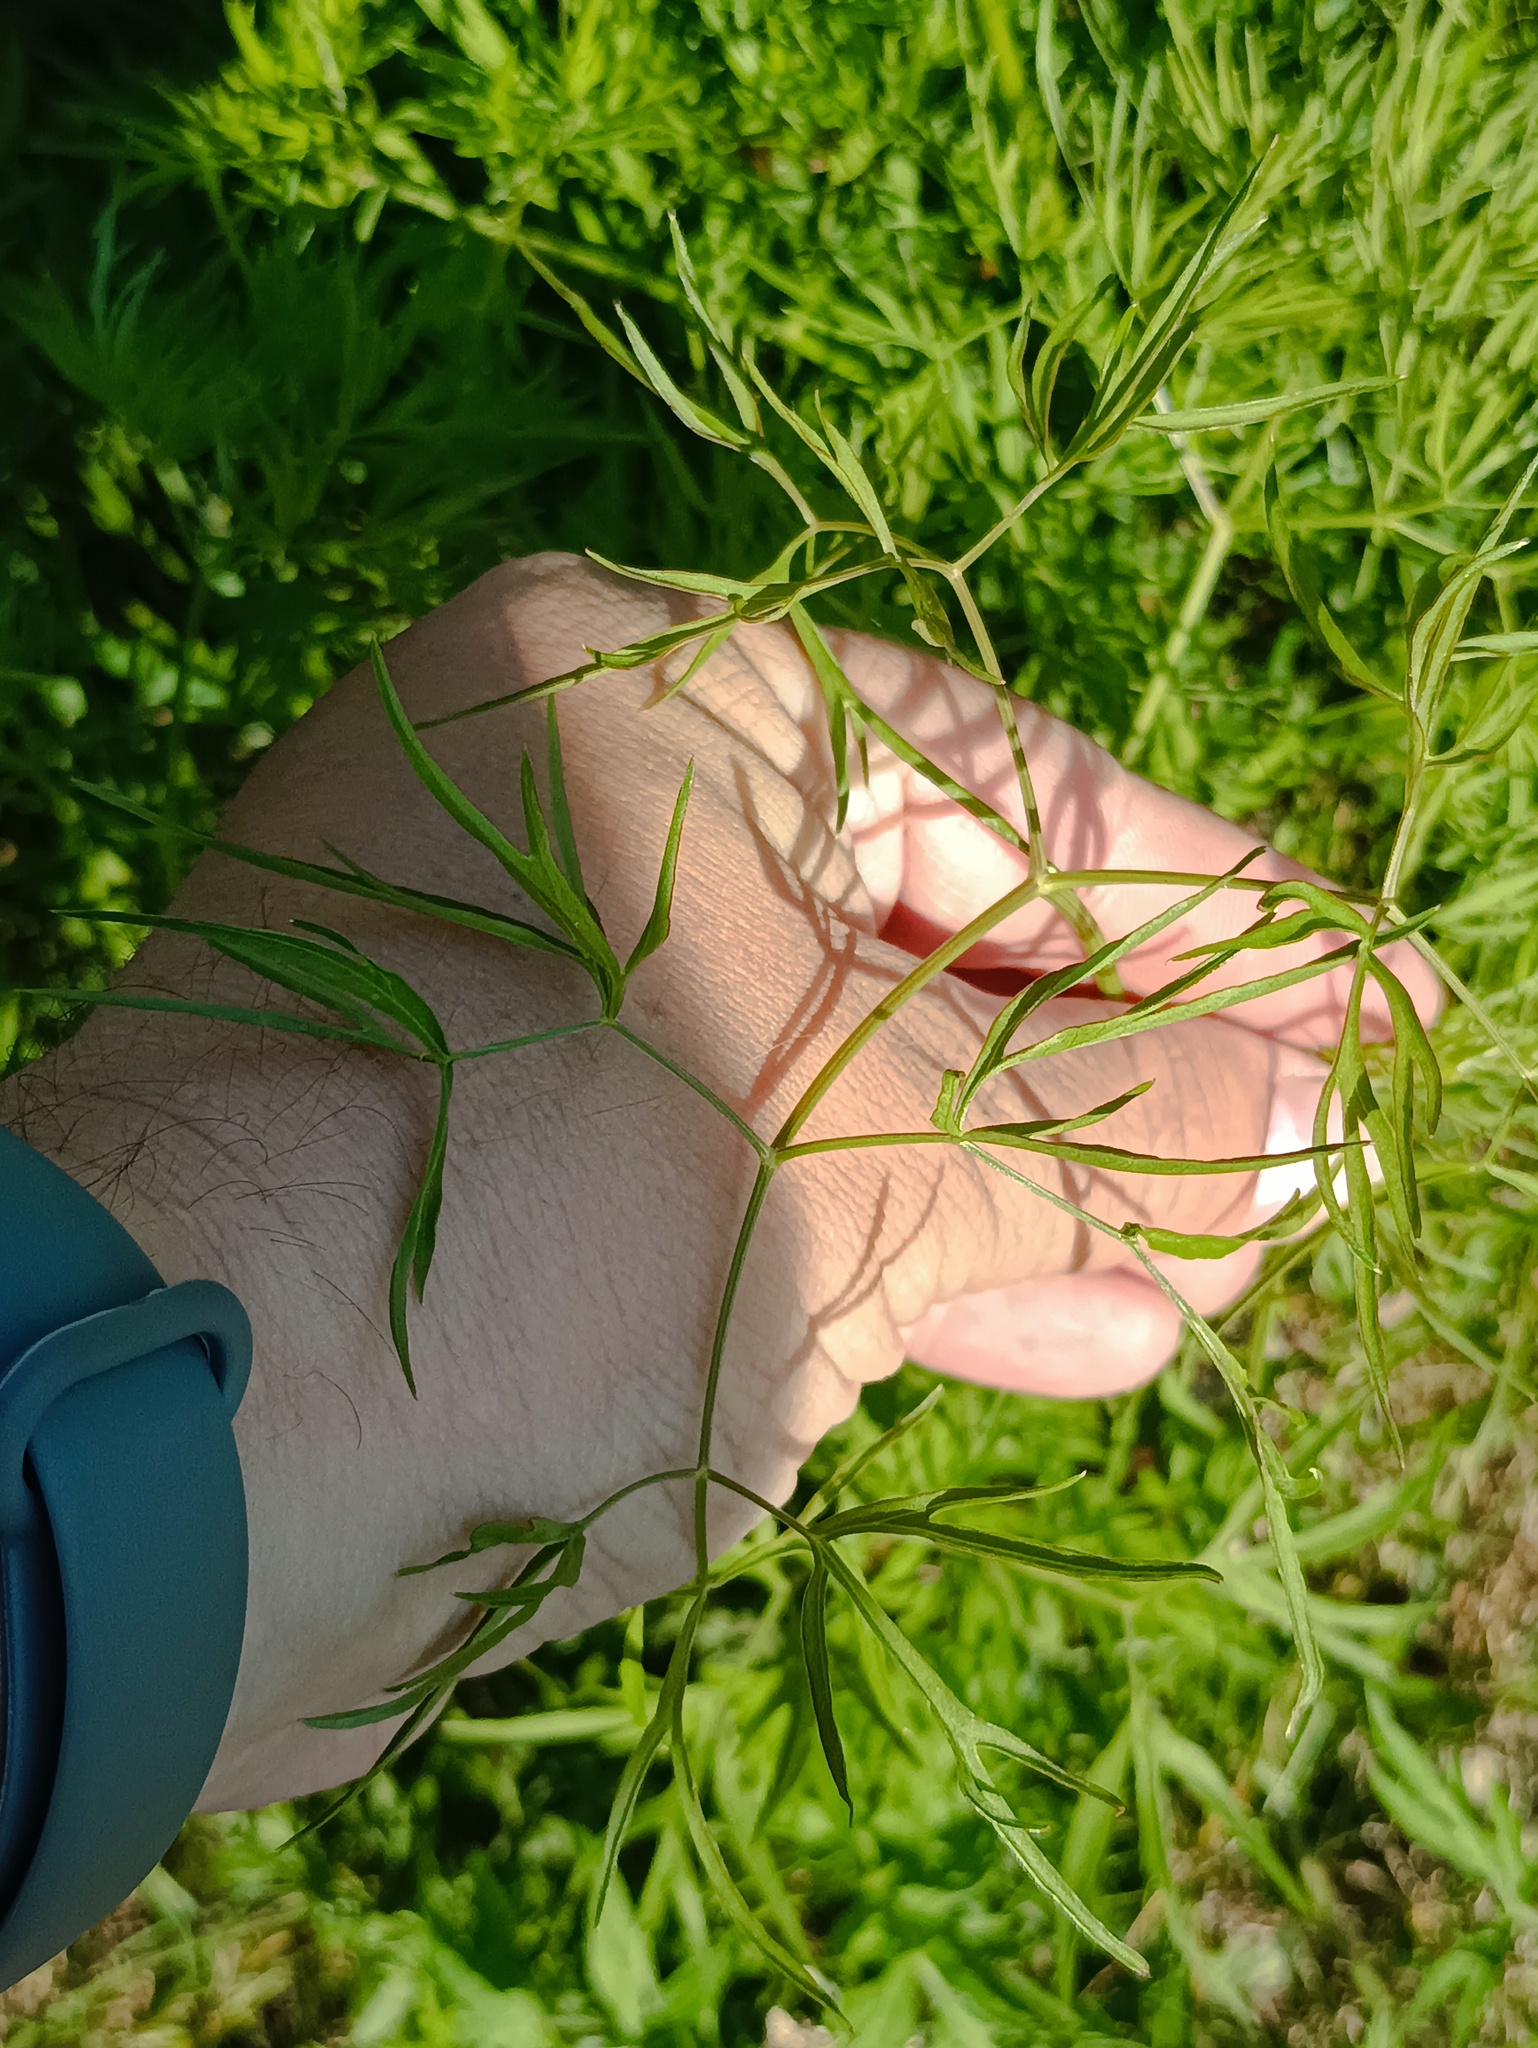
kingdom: Plantae
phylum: Tracheophyta
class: Magnoliopsida
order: Apiales
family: Apiaceae
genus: Cenolophium
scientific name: Cenolophium fischeri
